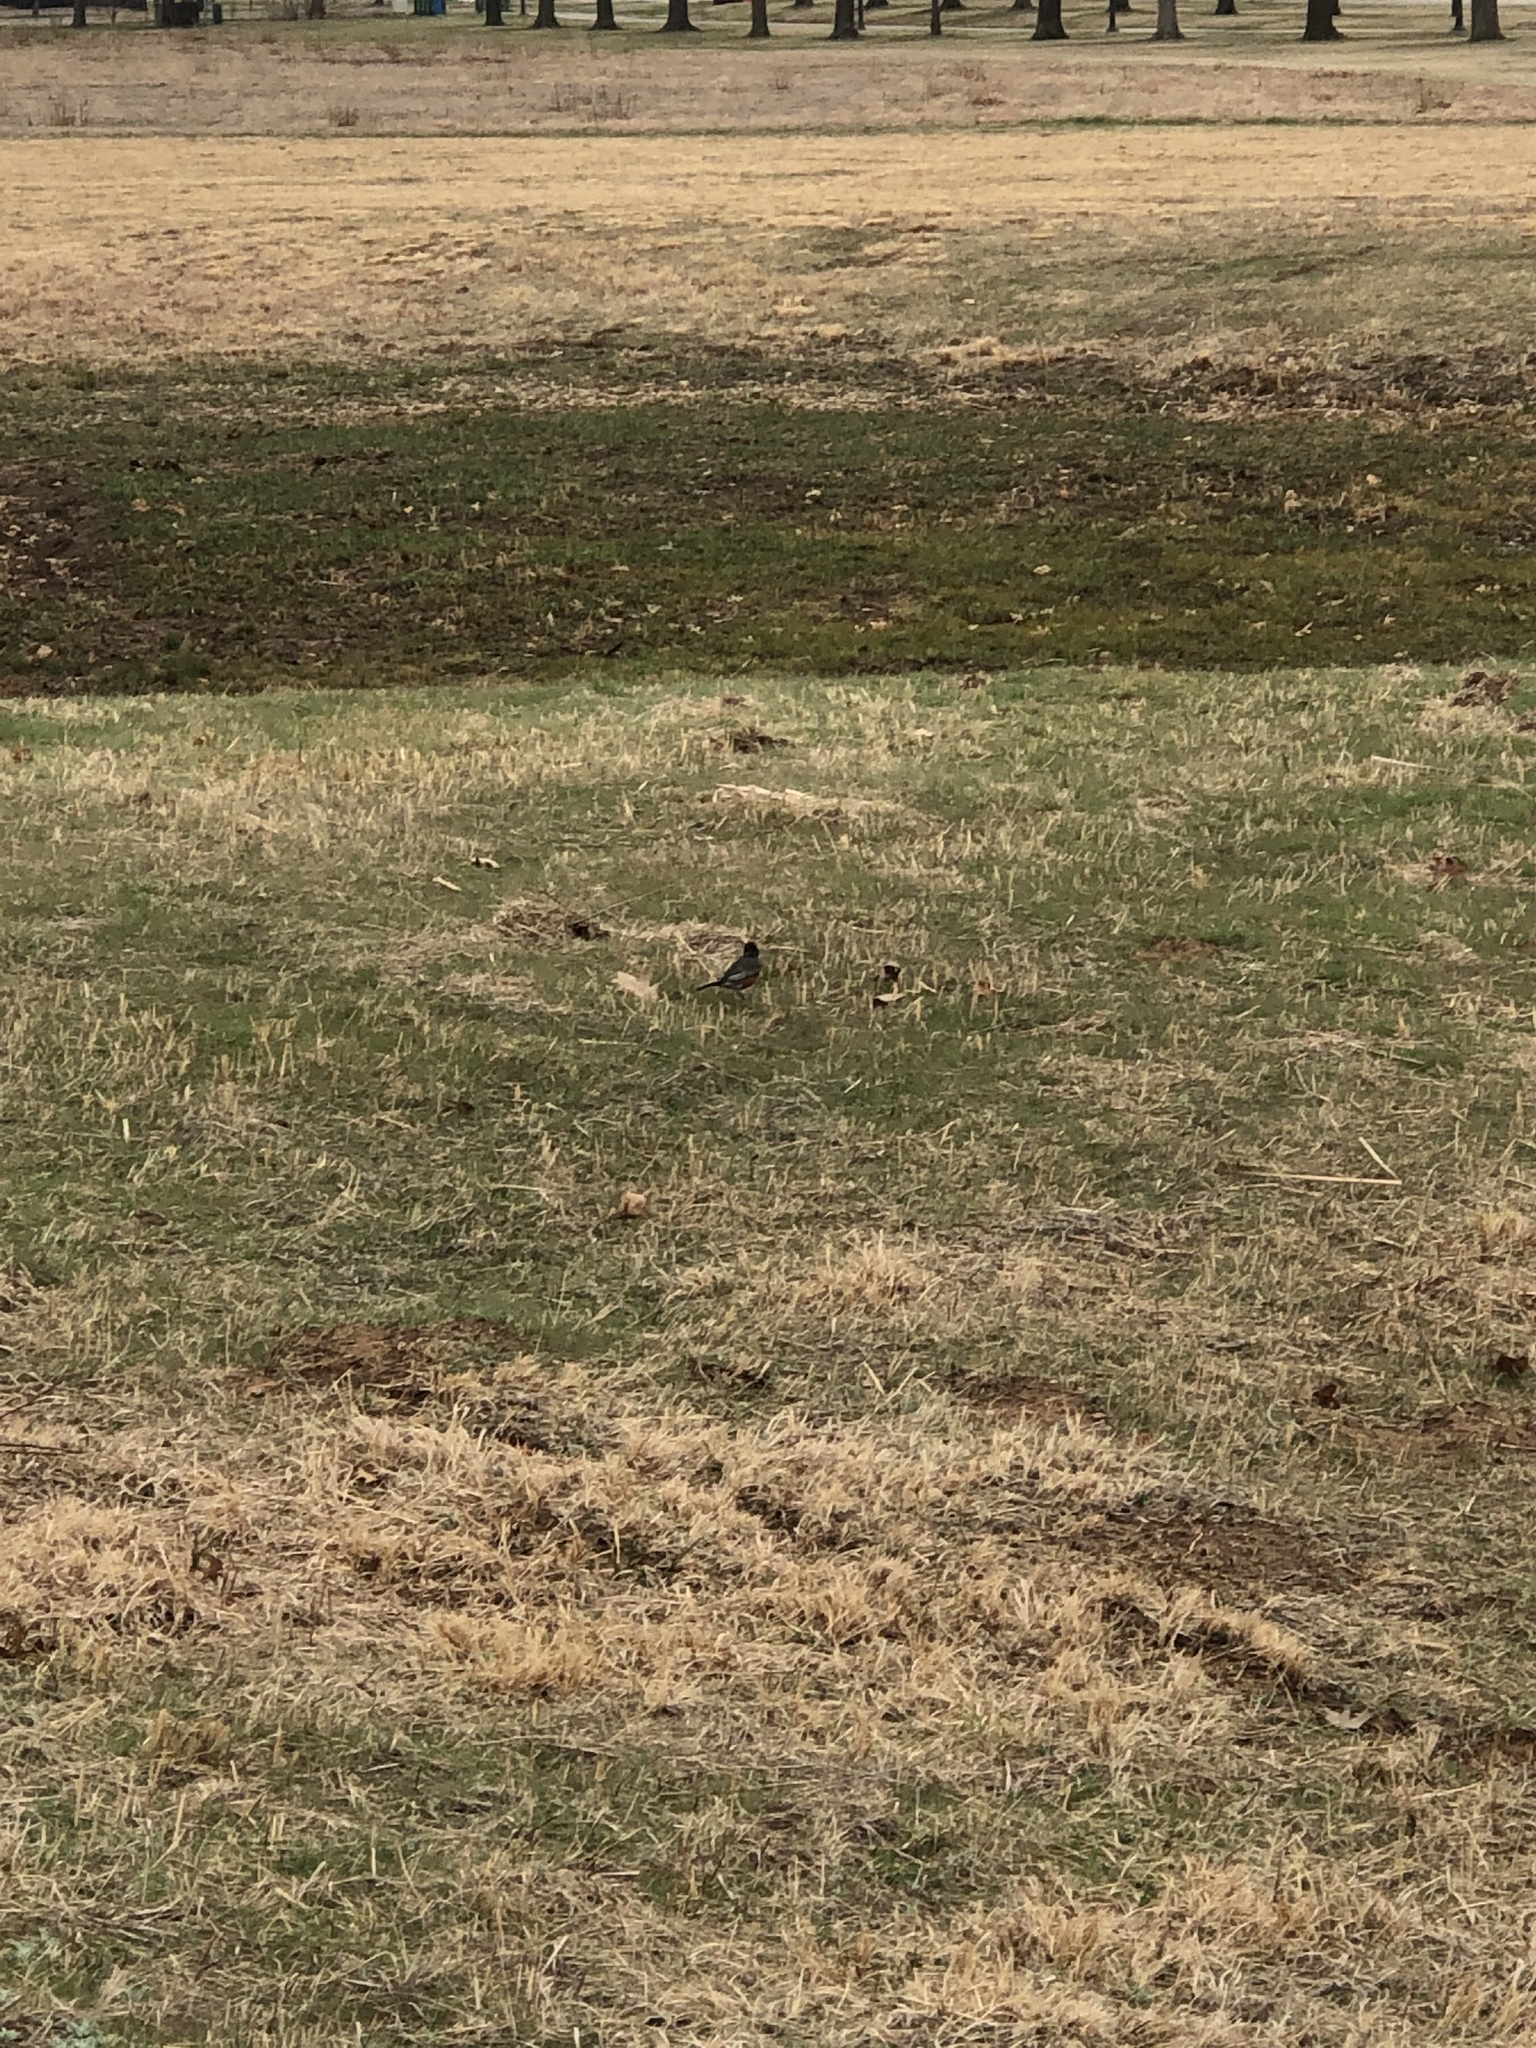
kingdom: Animalia
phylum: Chordata
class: Aves
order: Passeriformes
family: Turdidae
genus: Turdus
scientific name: Turdus migratorius
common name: American robin
